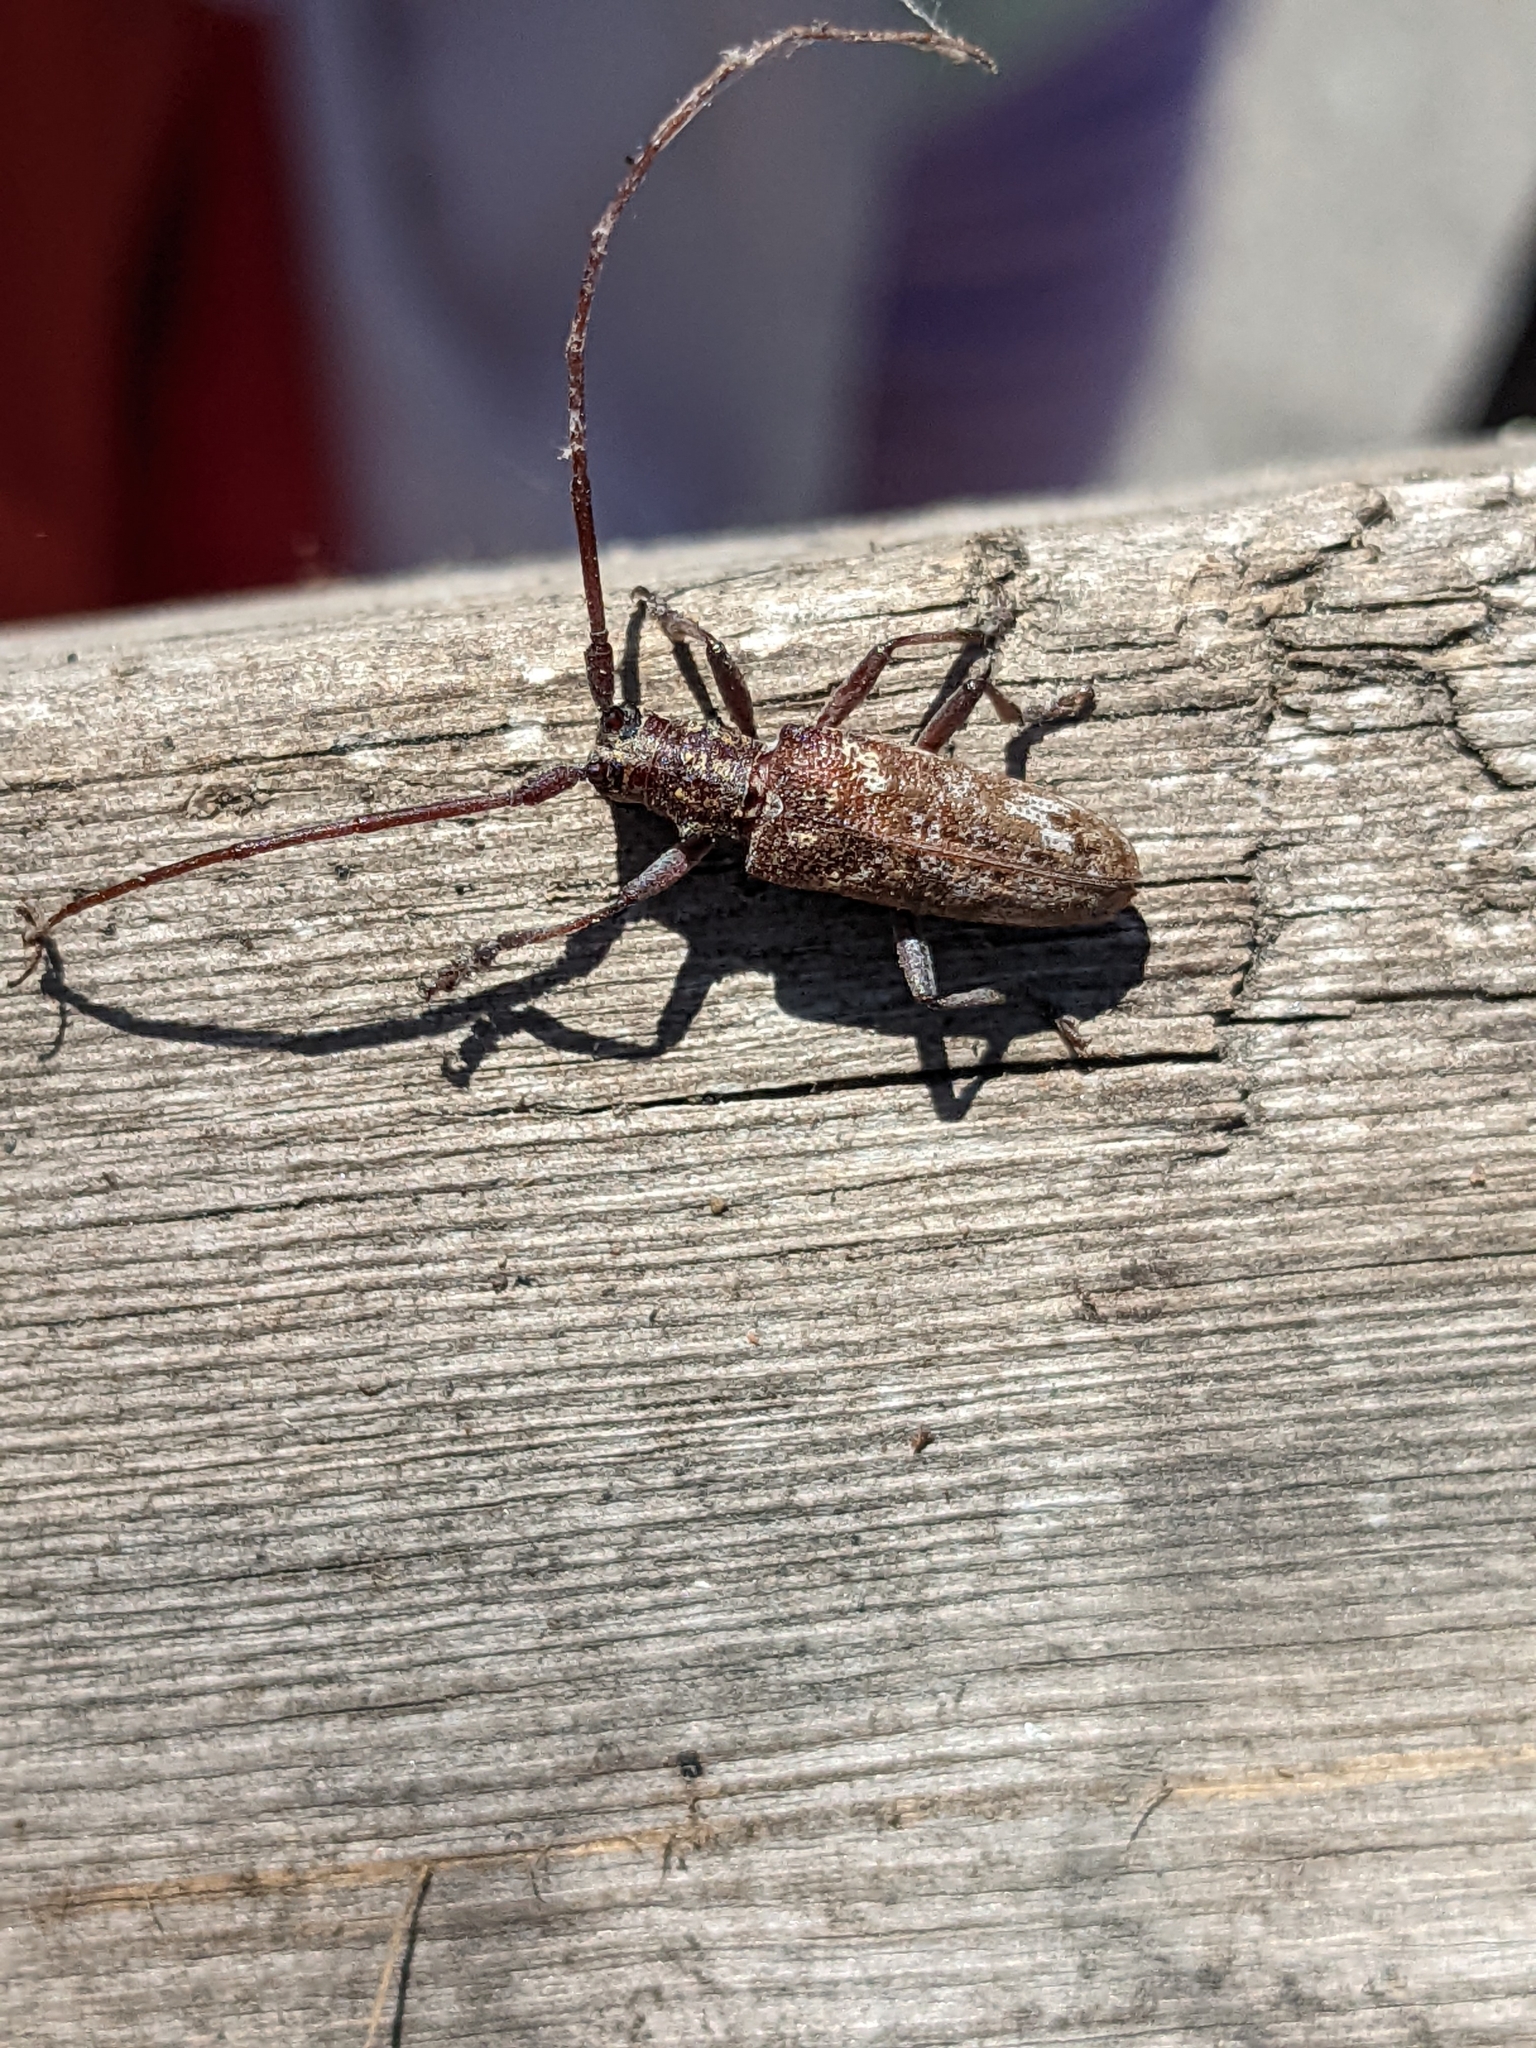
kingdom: Animalia
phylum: Arthropoda
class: Insecta
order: Coleoptera
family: Cerambycidae
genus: Monochamus
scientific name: Monochamus carolinensis
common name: Carolina pine sawyer
